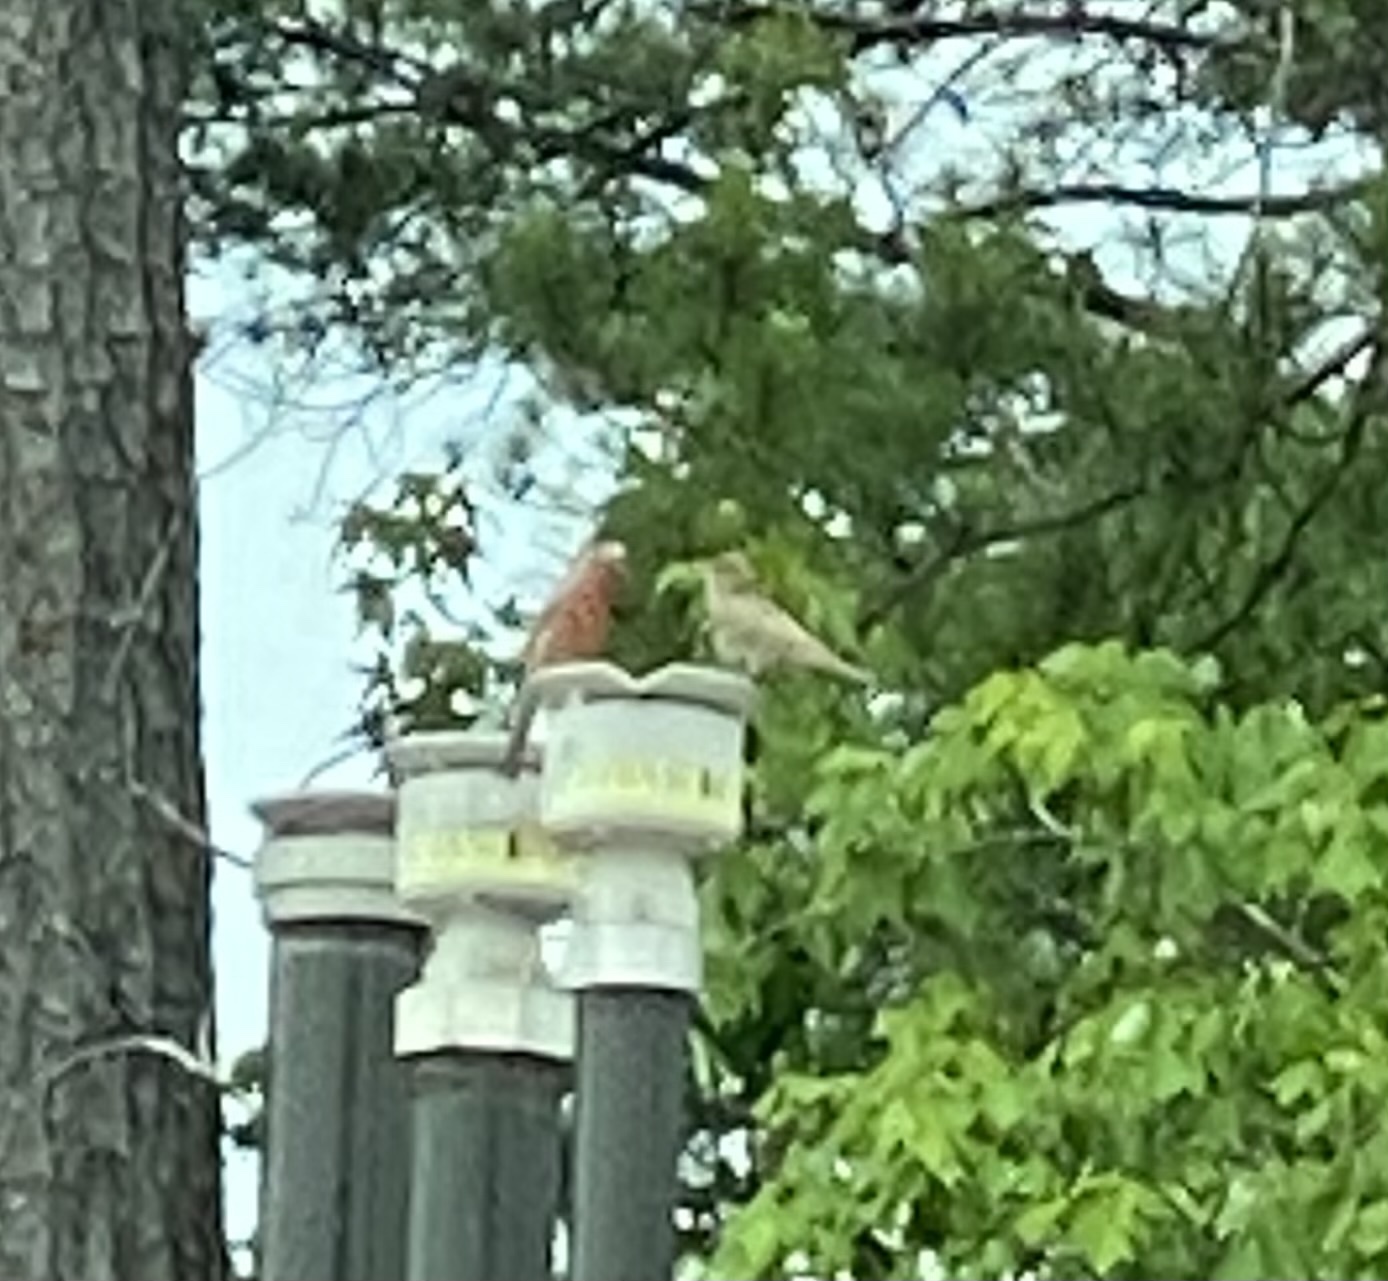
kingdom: Animalia
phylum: Chordata
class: Aves
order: Passeriformes
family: Fringillidae
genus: Haemorhous
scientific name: Haemorhous mexicanus
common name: House finch
